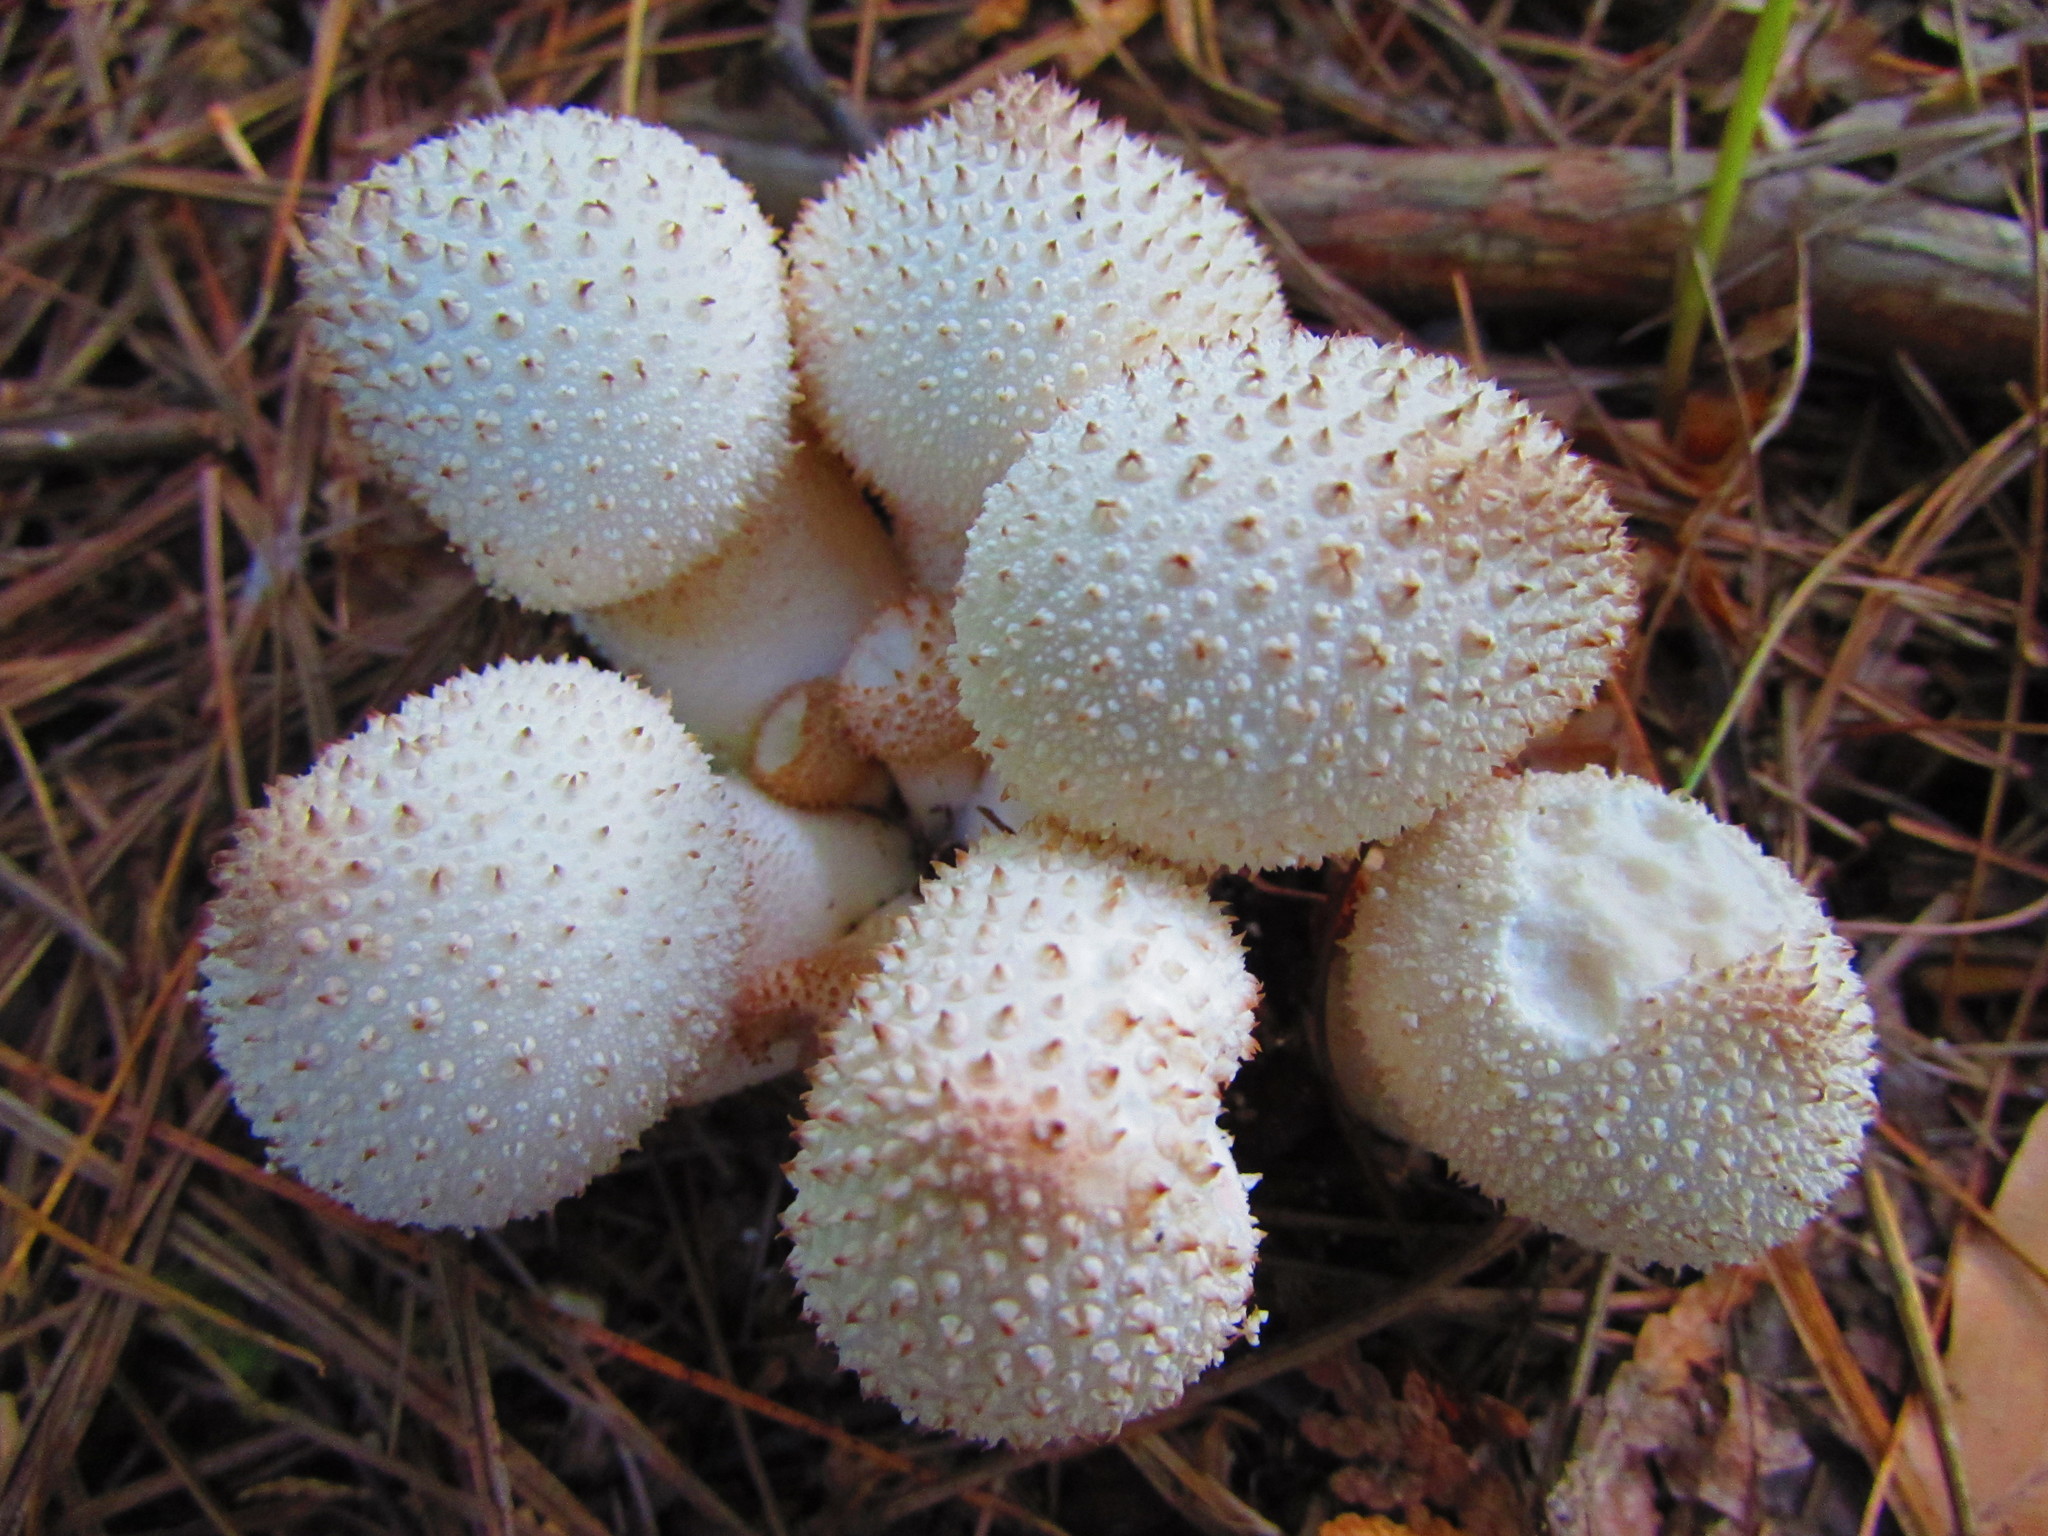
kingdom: Fungi
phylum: Basidiomycota
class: Agaricomycetes
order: Agaricales
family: Lycoperdaceae
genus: Lycoperdon
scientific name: Lycoperdon perlatum
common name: Common puffball
